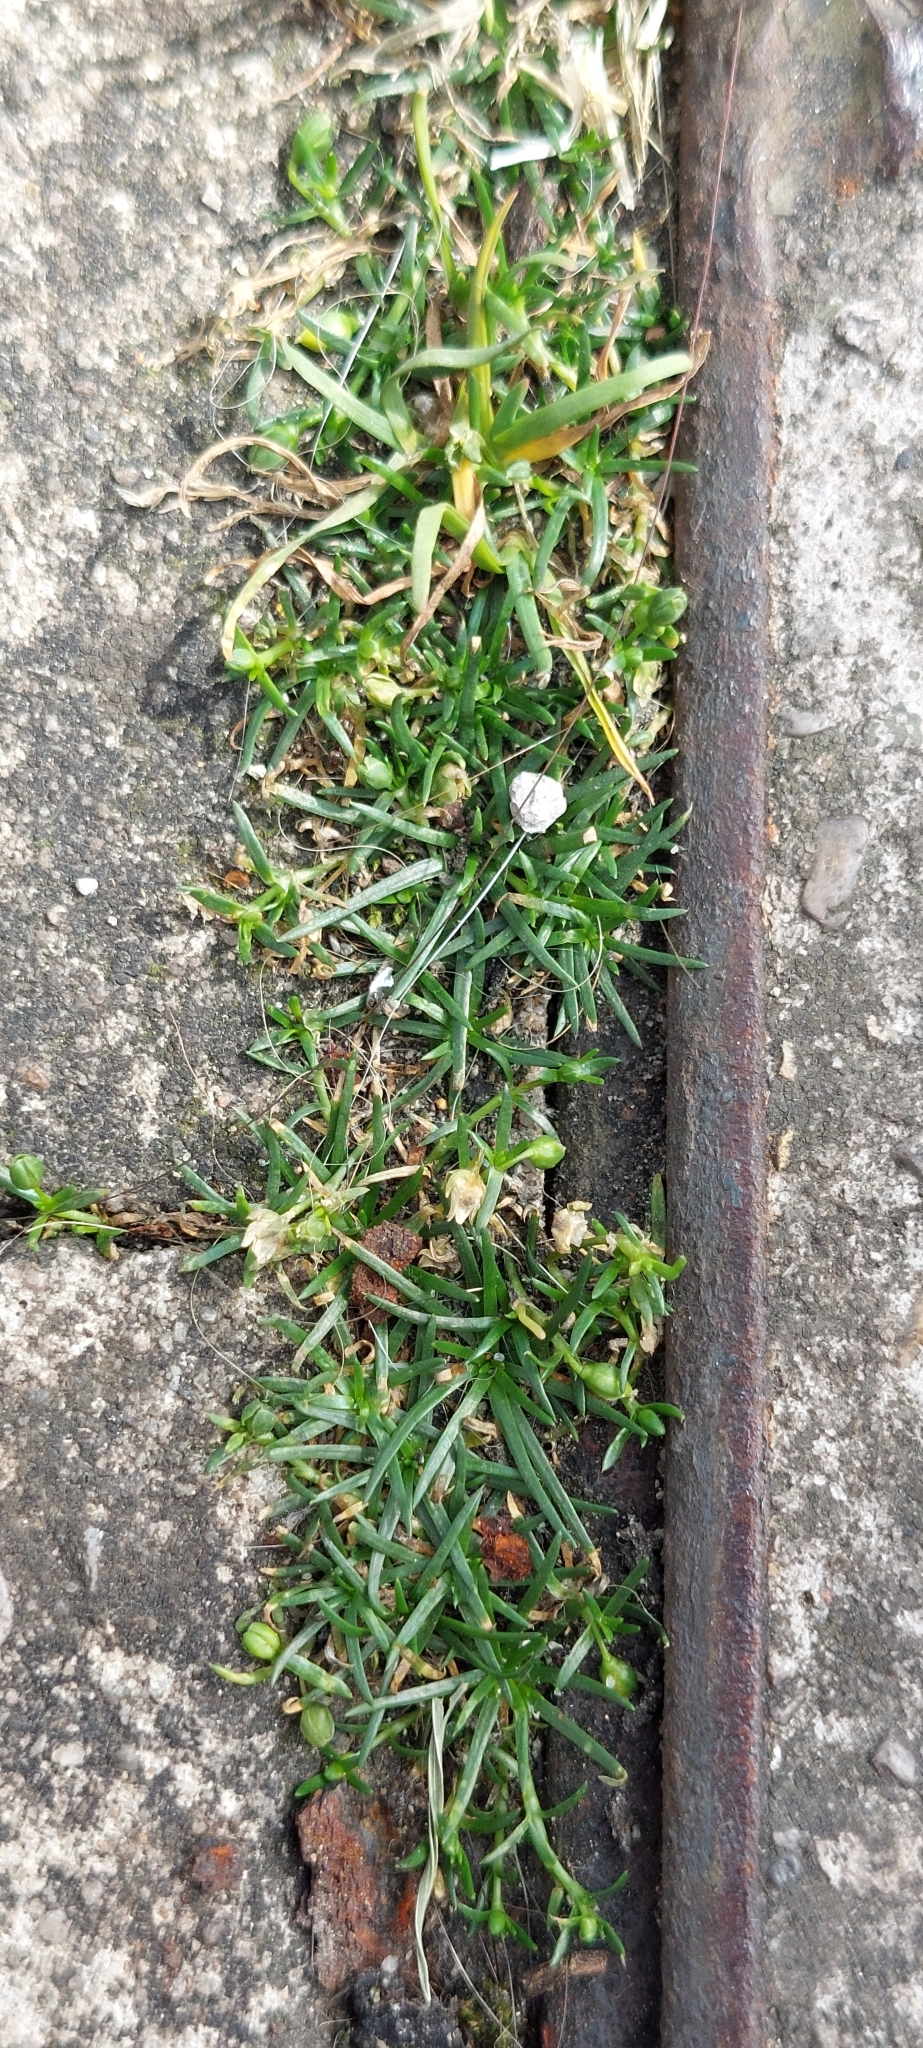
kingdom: Plantae
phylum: Tracheophyta
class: Magnoliopsida
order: Caryophyllales
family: Caryophyllaceae
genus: Sagina
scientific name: Sagina procumbens
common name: Procumbent pearlwort
